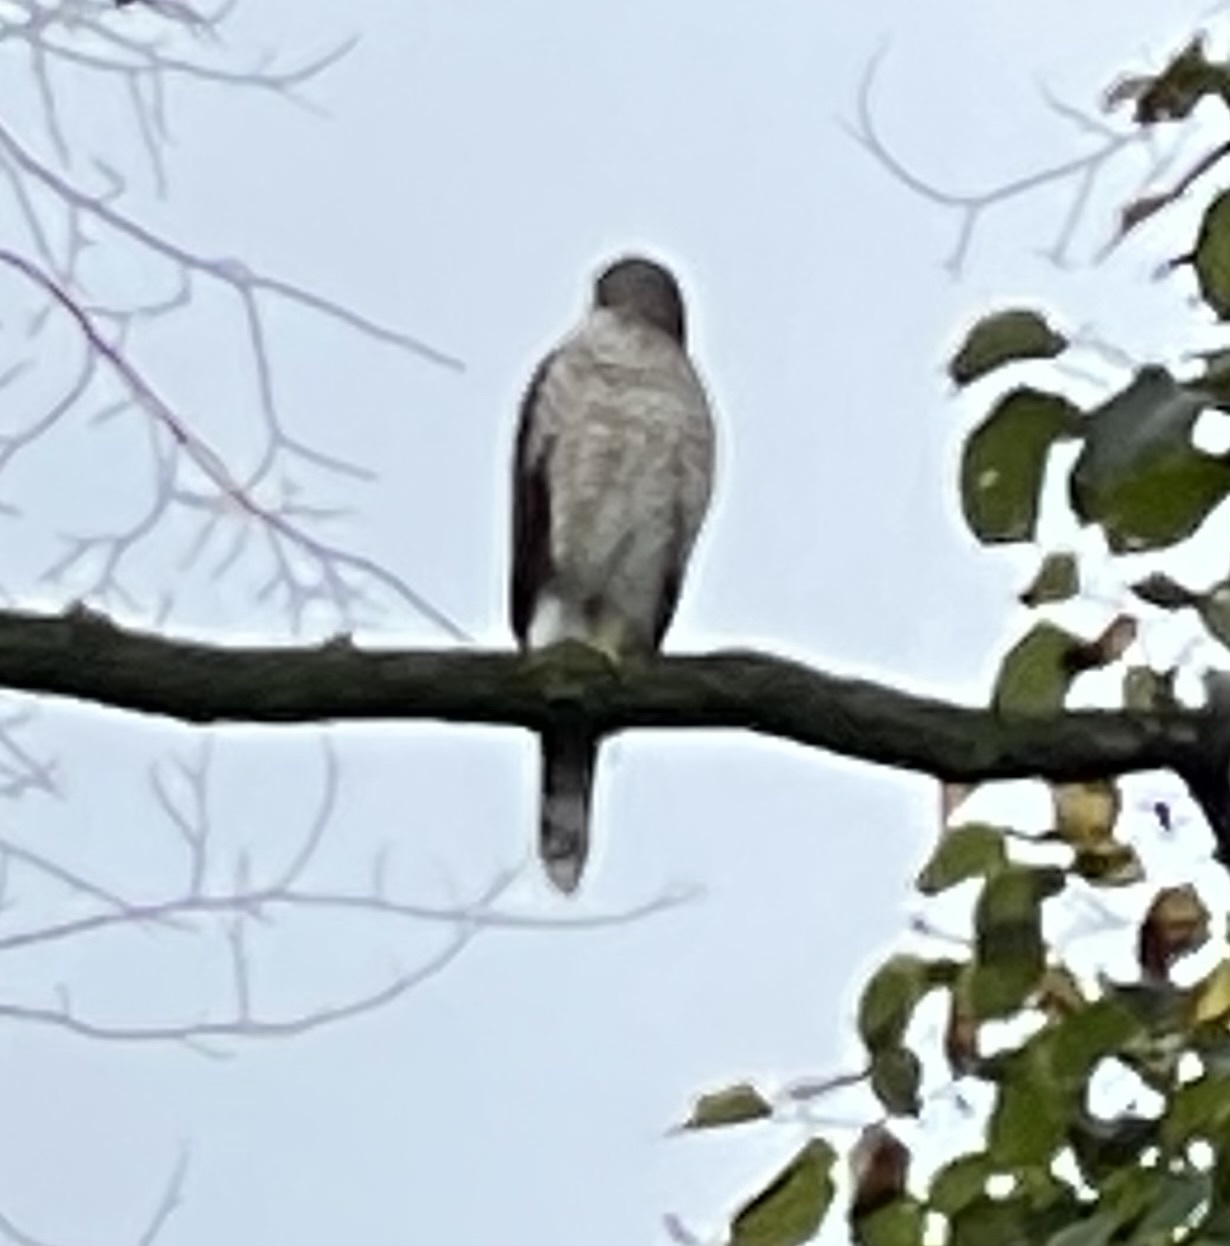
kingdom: Animalia
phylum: Chordata
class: Aves
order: Accipitriformes
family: Accipitridae
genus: Accipiter
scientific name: Accipiter cooperii
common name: Cooper's hawk
